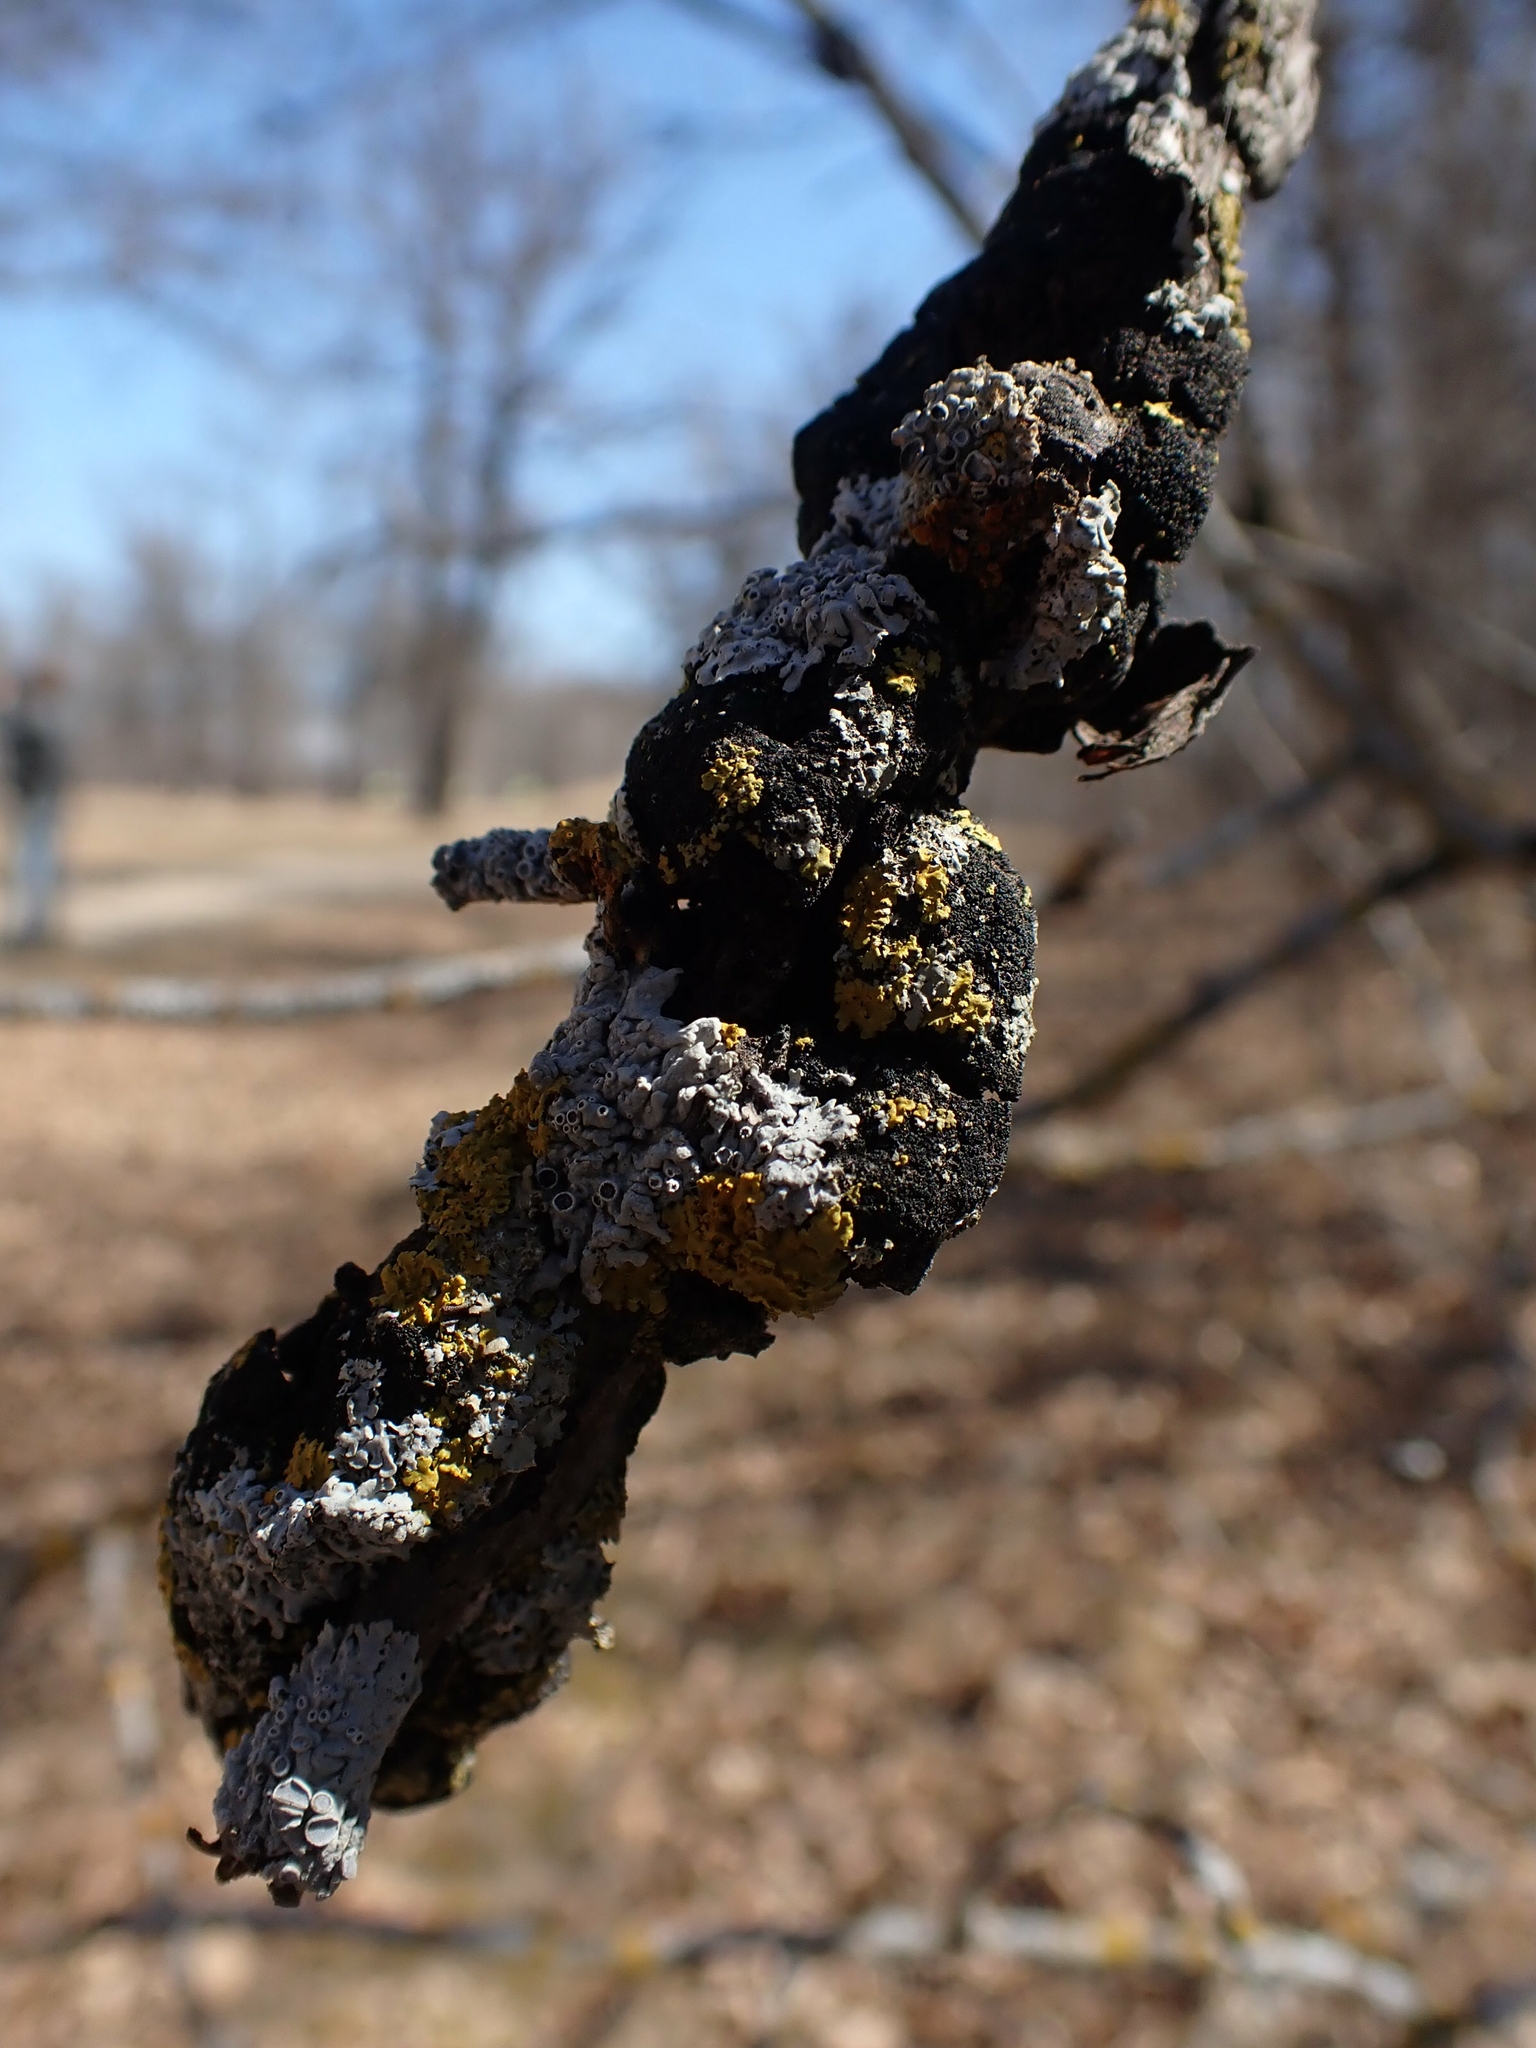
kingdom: Fungi
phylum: Ascomycota
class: Dothideomycetes
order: Venturiales
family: Venturiaceae
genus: Apiosporina
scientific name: Apiosporina morbosa
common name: Black knot
